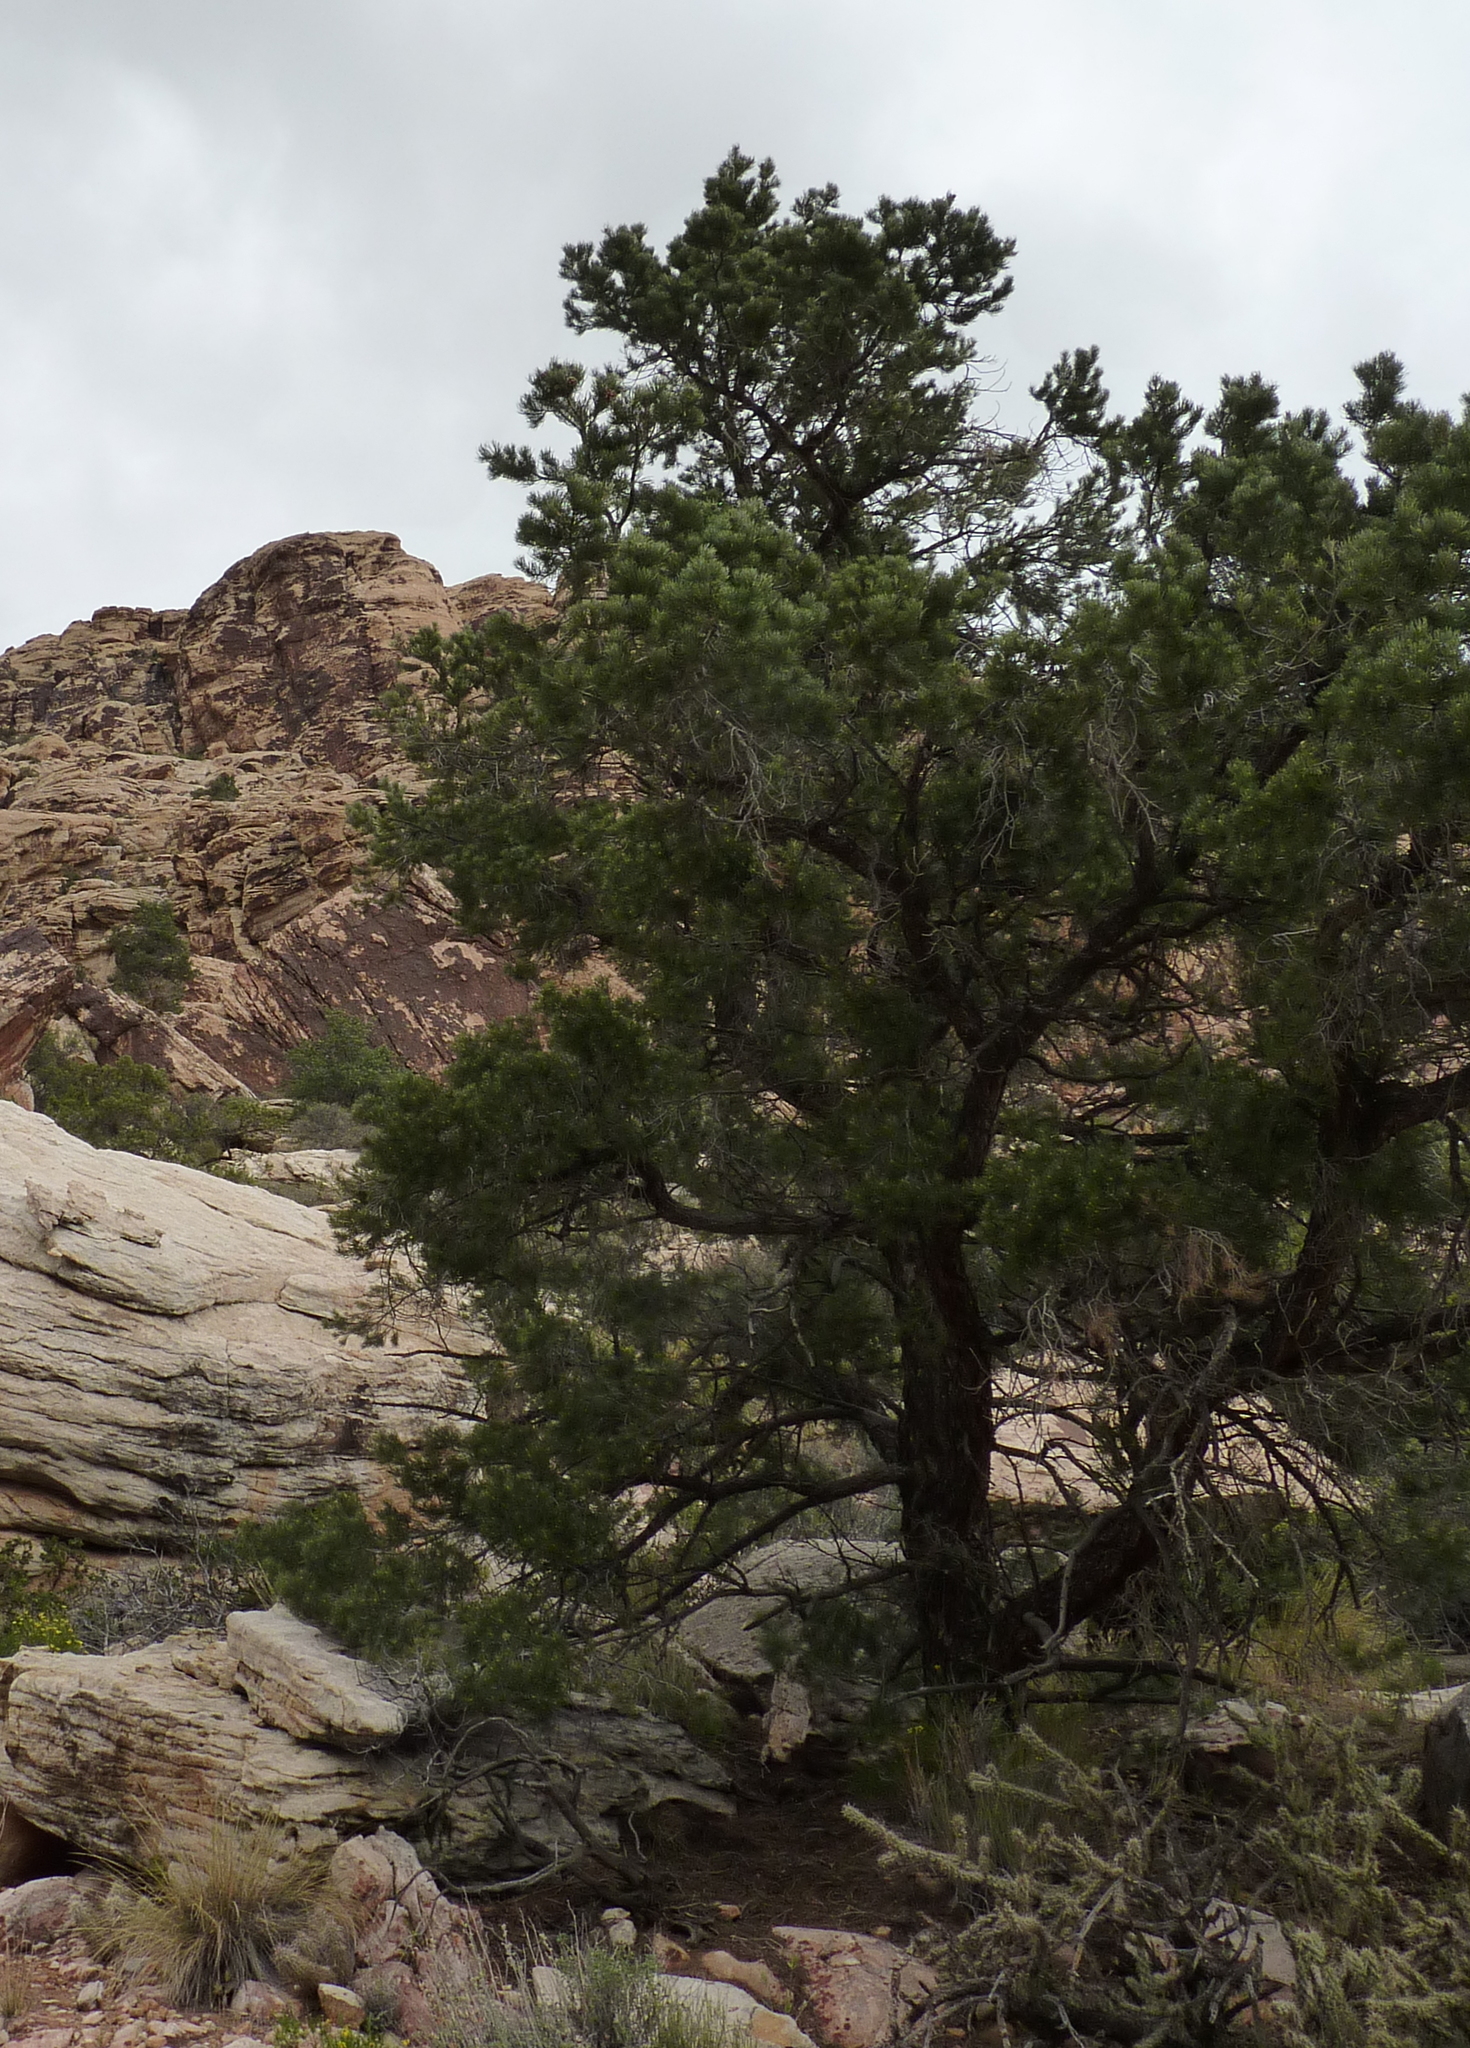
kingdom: Plantae
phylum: Tracheophyta
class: Pinopsida
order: Pinales
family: Pinaceae
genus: Pinus
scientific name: Pinus monophylla
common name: One-leaved nut pine
